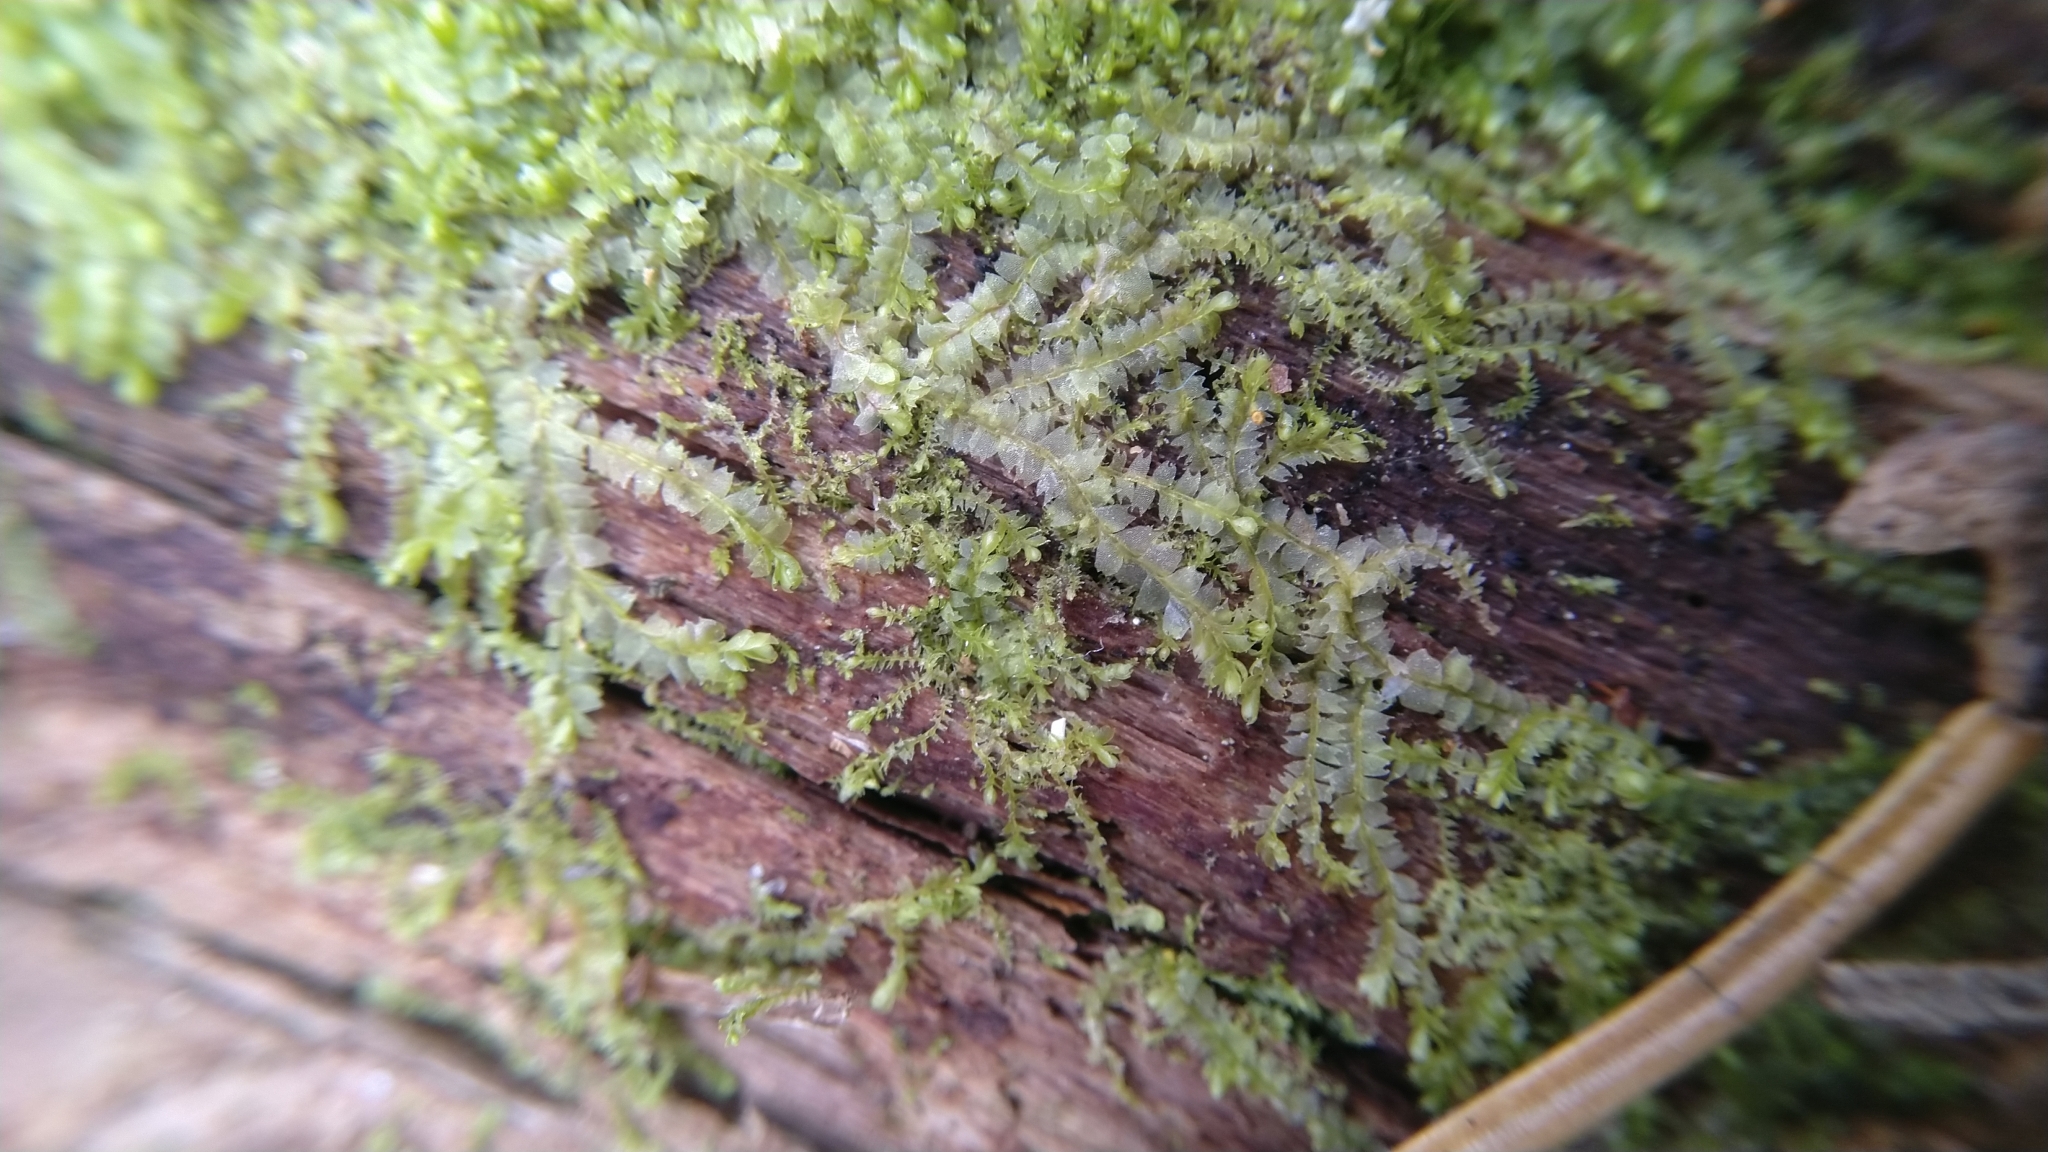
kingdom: Plantae
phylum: Marchantiophyta
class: Jungermanniopsida
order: Jungermanniales
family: Lophocoleaceae
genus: Lophocolea
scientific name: Lophocolea heterophylla
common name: Variable-leaved crestwort
